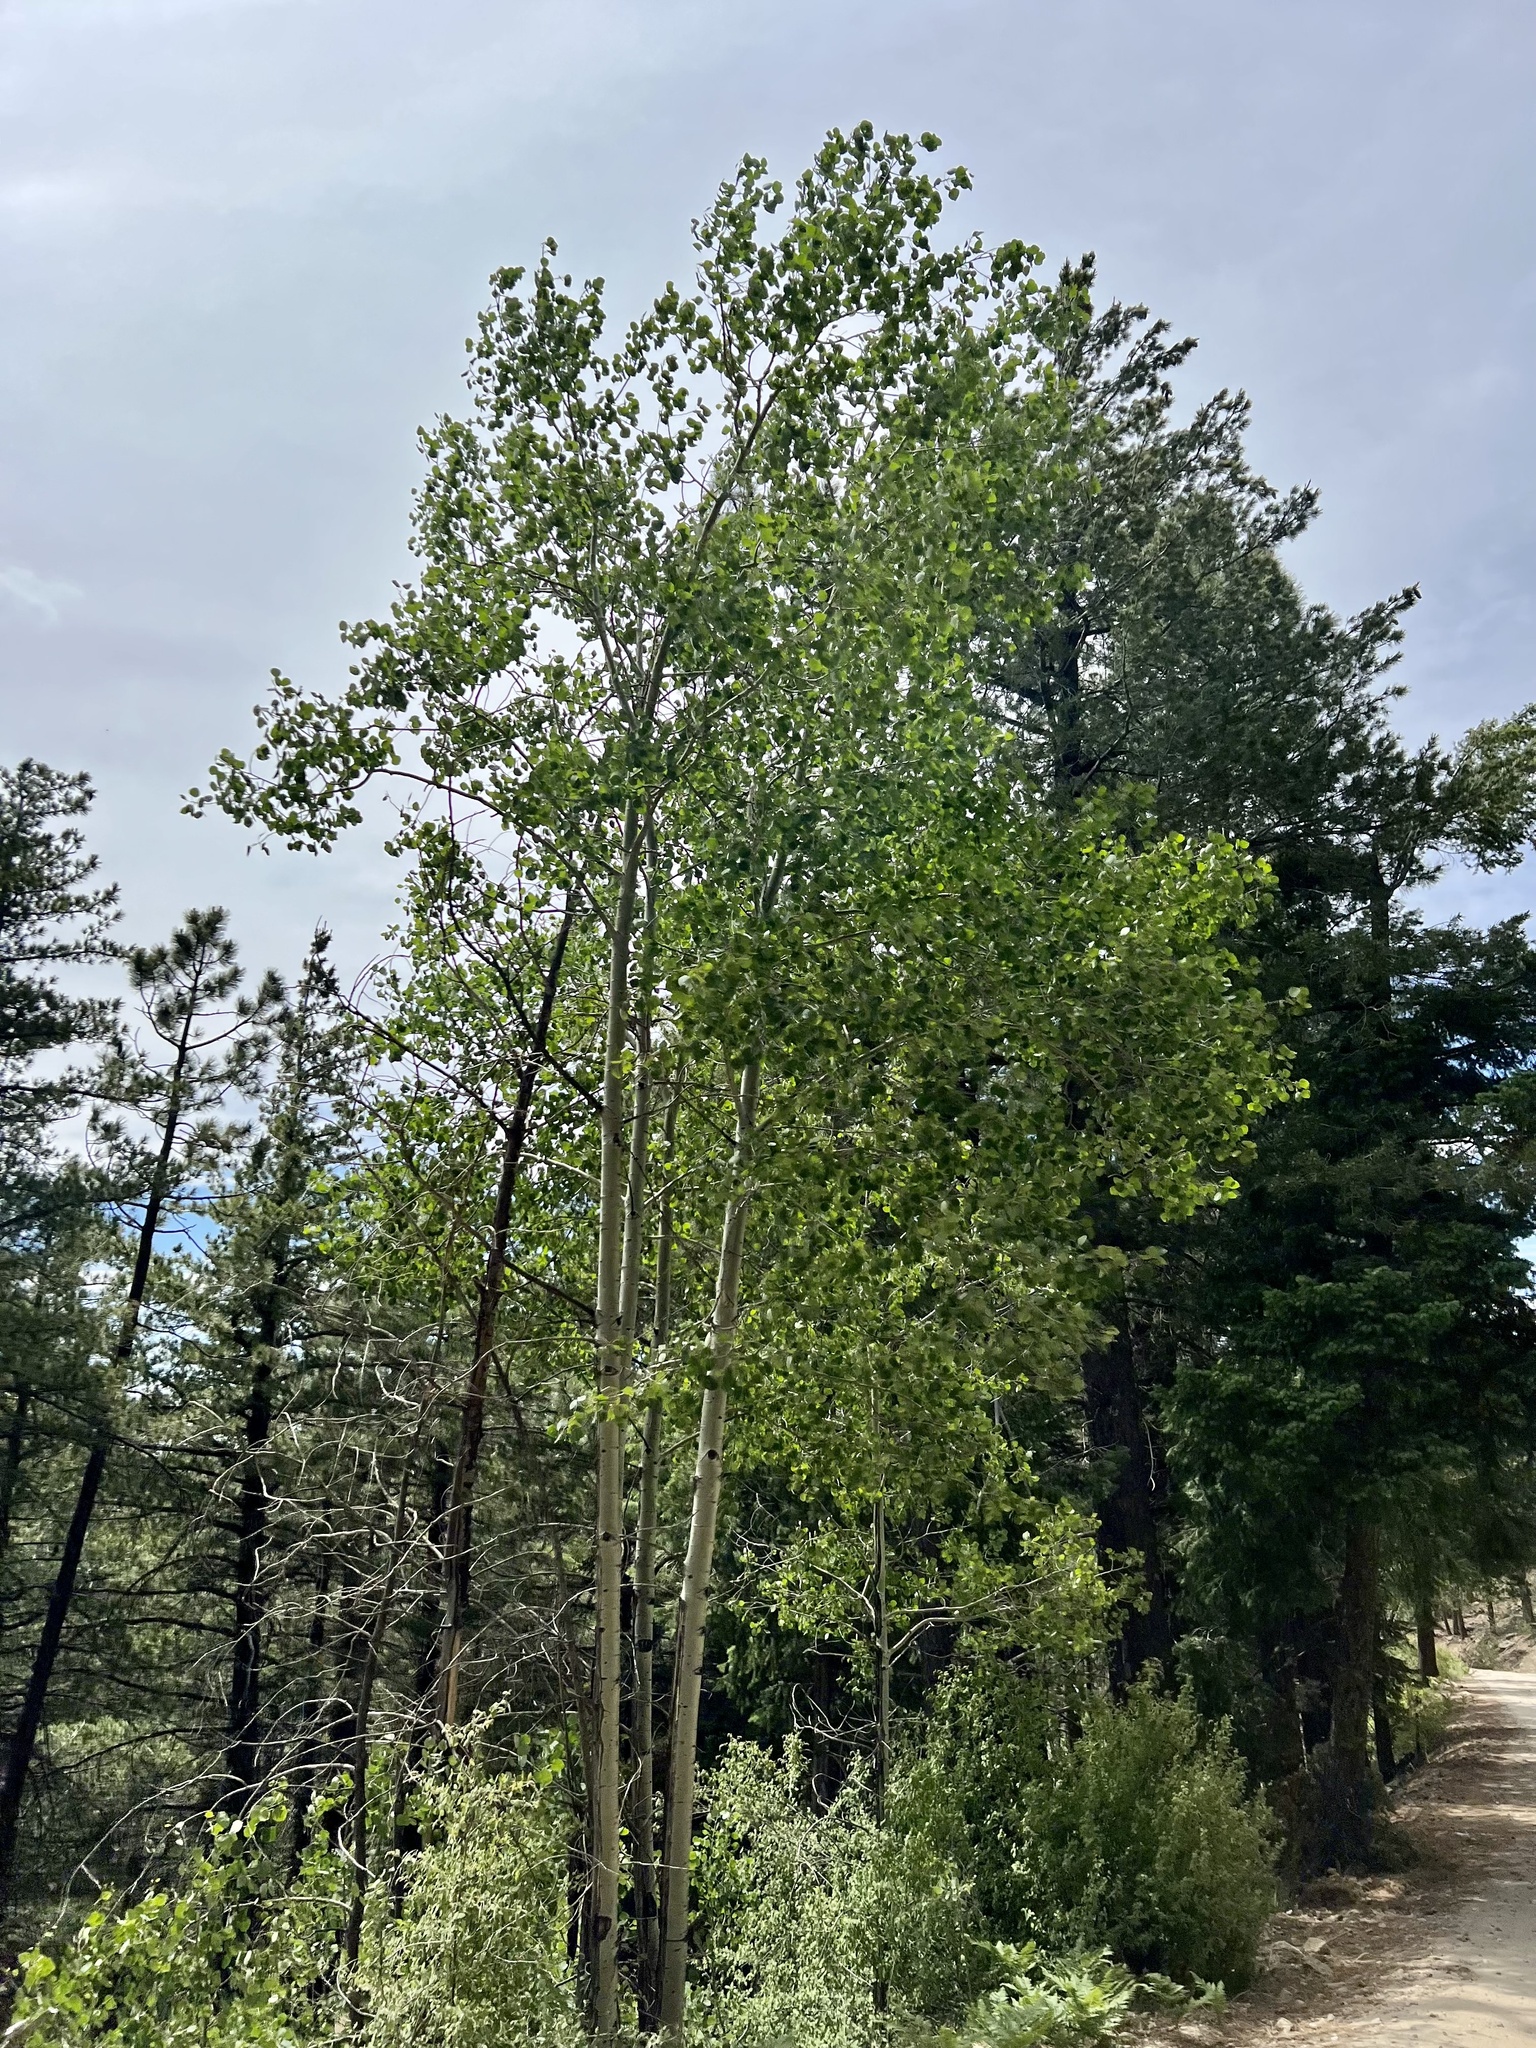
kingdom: Plantae
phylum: Tracheophyta
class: Magnoliopsida
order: Malpighiales
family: Salicaceae
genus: Populus
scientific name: Populus tremuloides
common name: Quaking aspen
